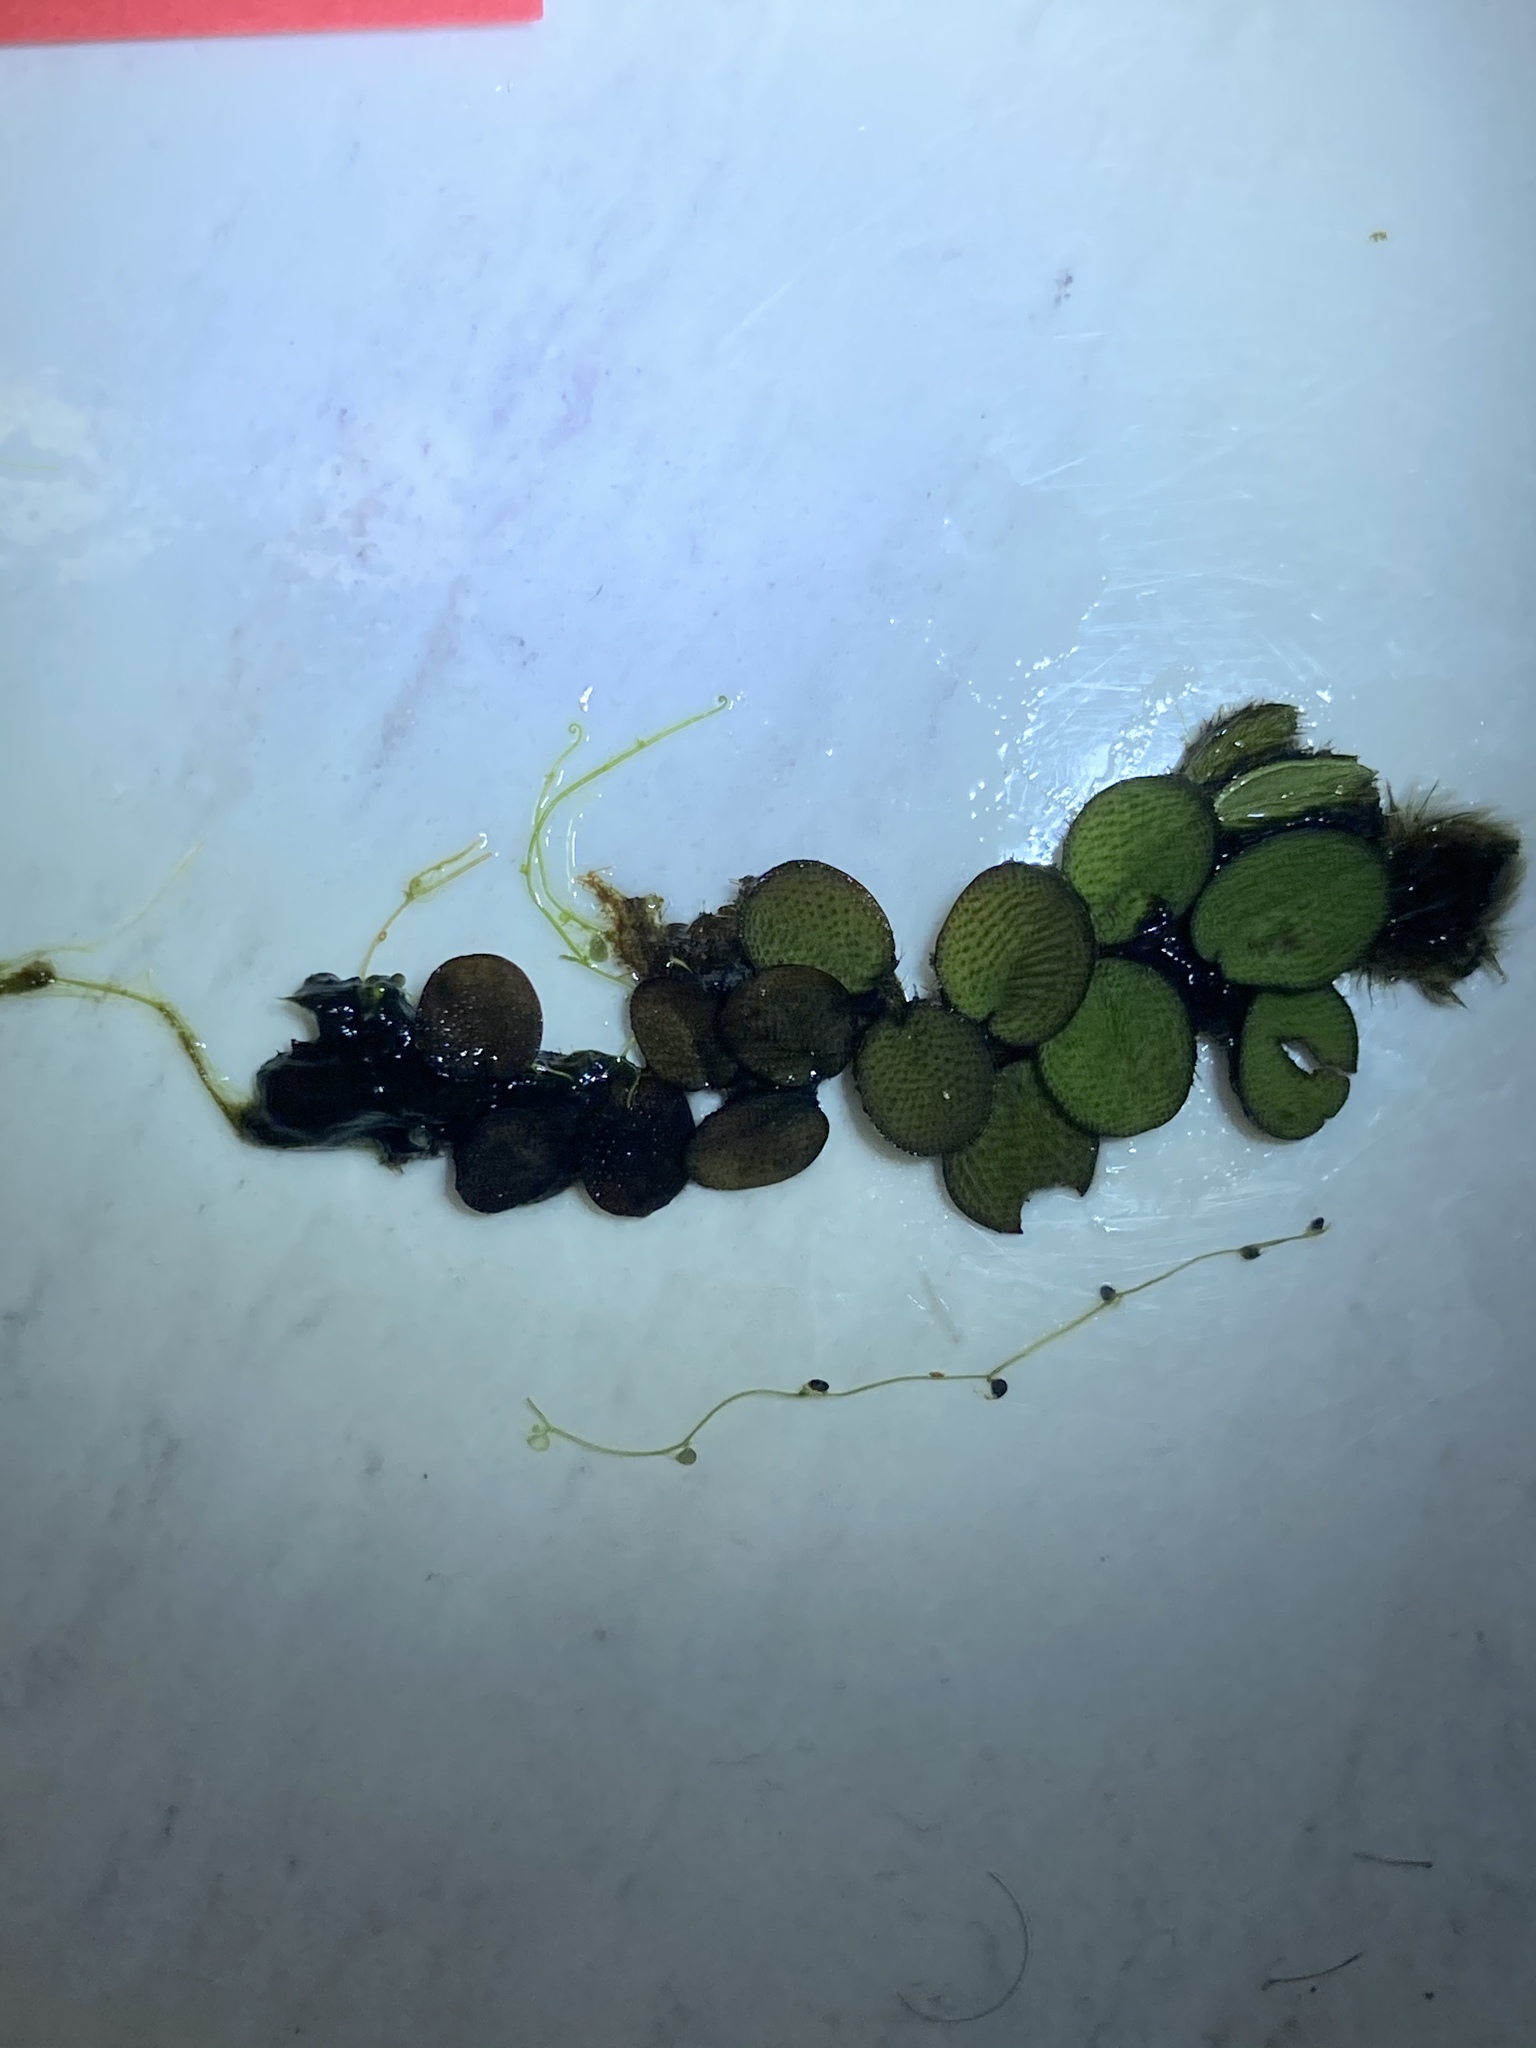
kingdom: Plantae
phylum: Tracheophyta
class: Polypodiopsida
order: Salviniales
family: Salviniaceae
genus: Salvinia
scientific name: Salvinia minima
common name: Water spangles
